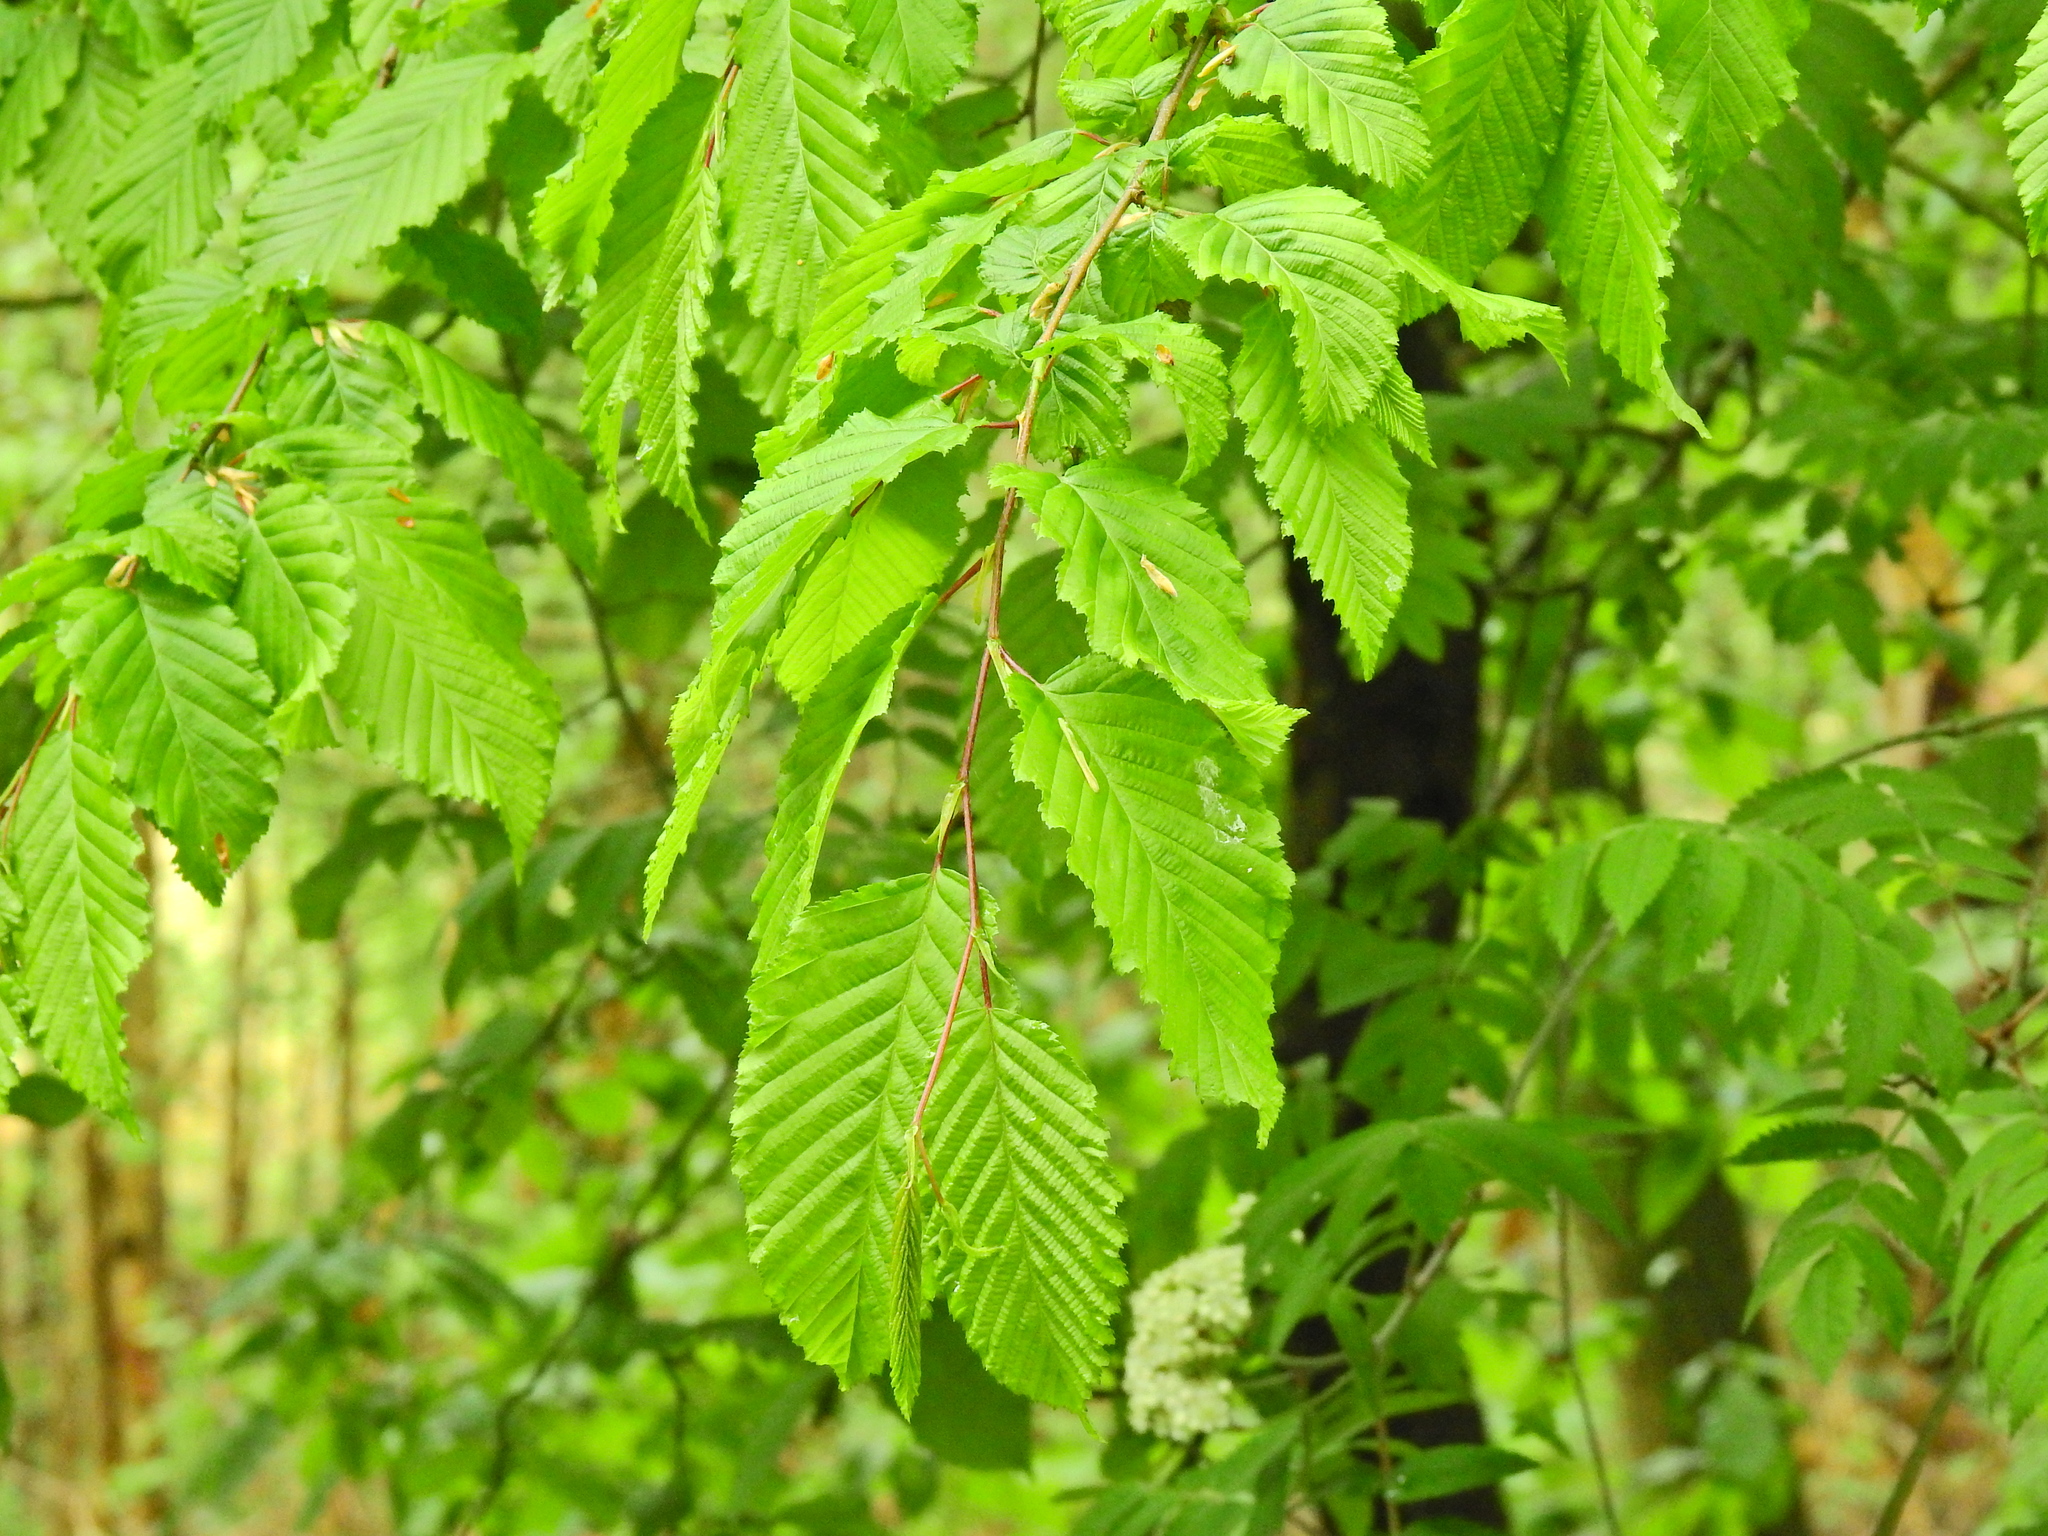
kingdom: Plantae
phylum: Tracheophyta
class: Magnoliopsida
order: Fagales
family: Betulaceae
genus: Carpinus
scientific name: Carpinus betulus
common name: Hornbeam
